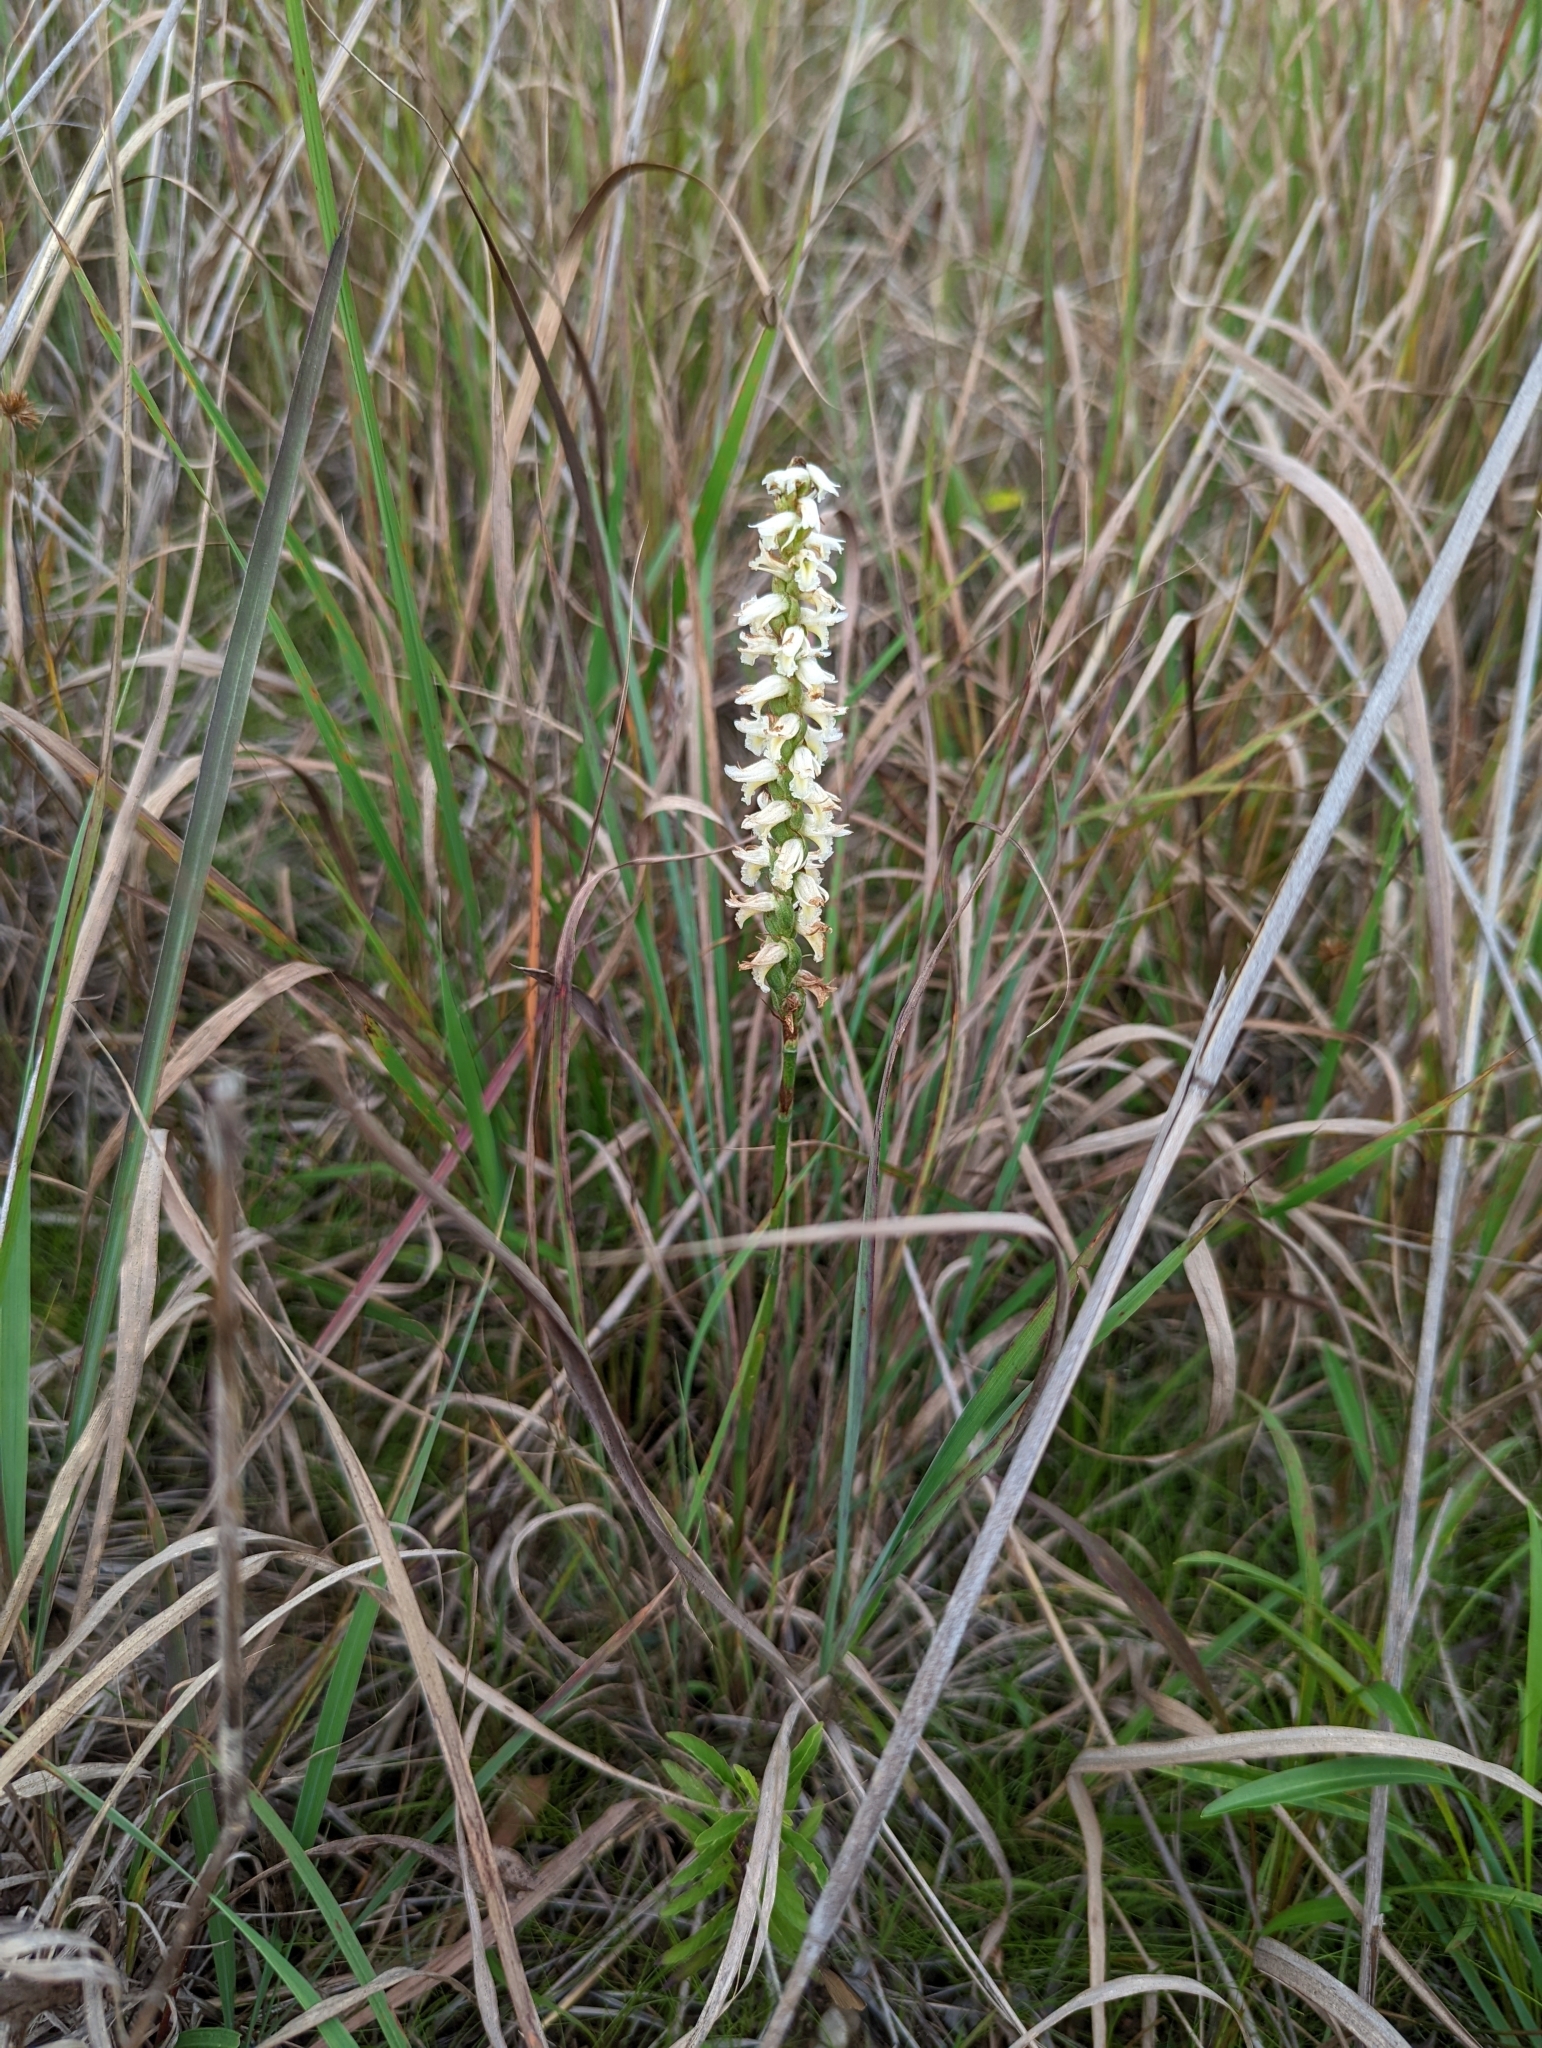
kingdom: Plantae
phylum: Tracheophyta
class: Liliopsida
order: Asparagales
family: Orchidaceae
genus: Spiranthes
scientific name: Spiranthes magnicamporum
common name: Great plains ladies'-tresses
